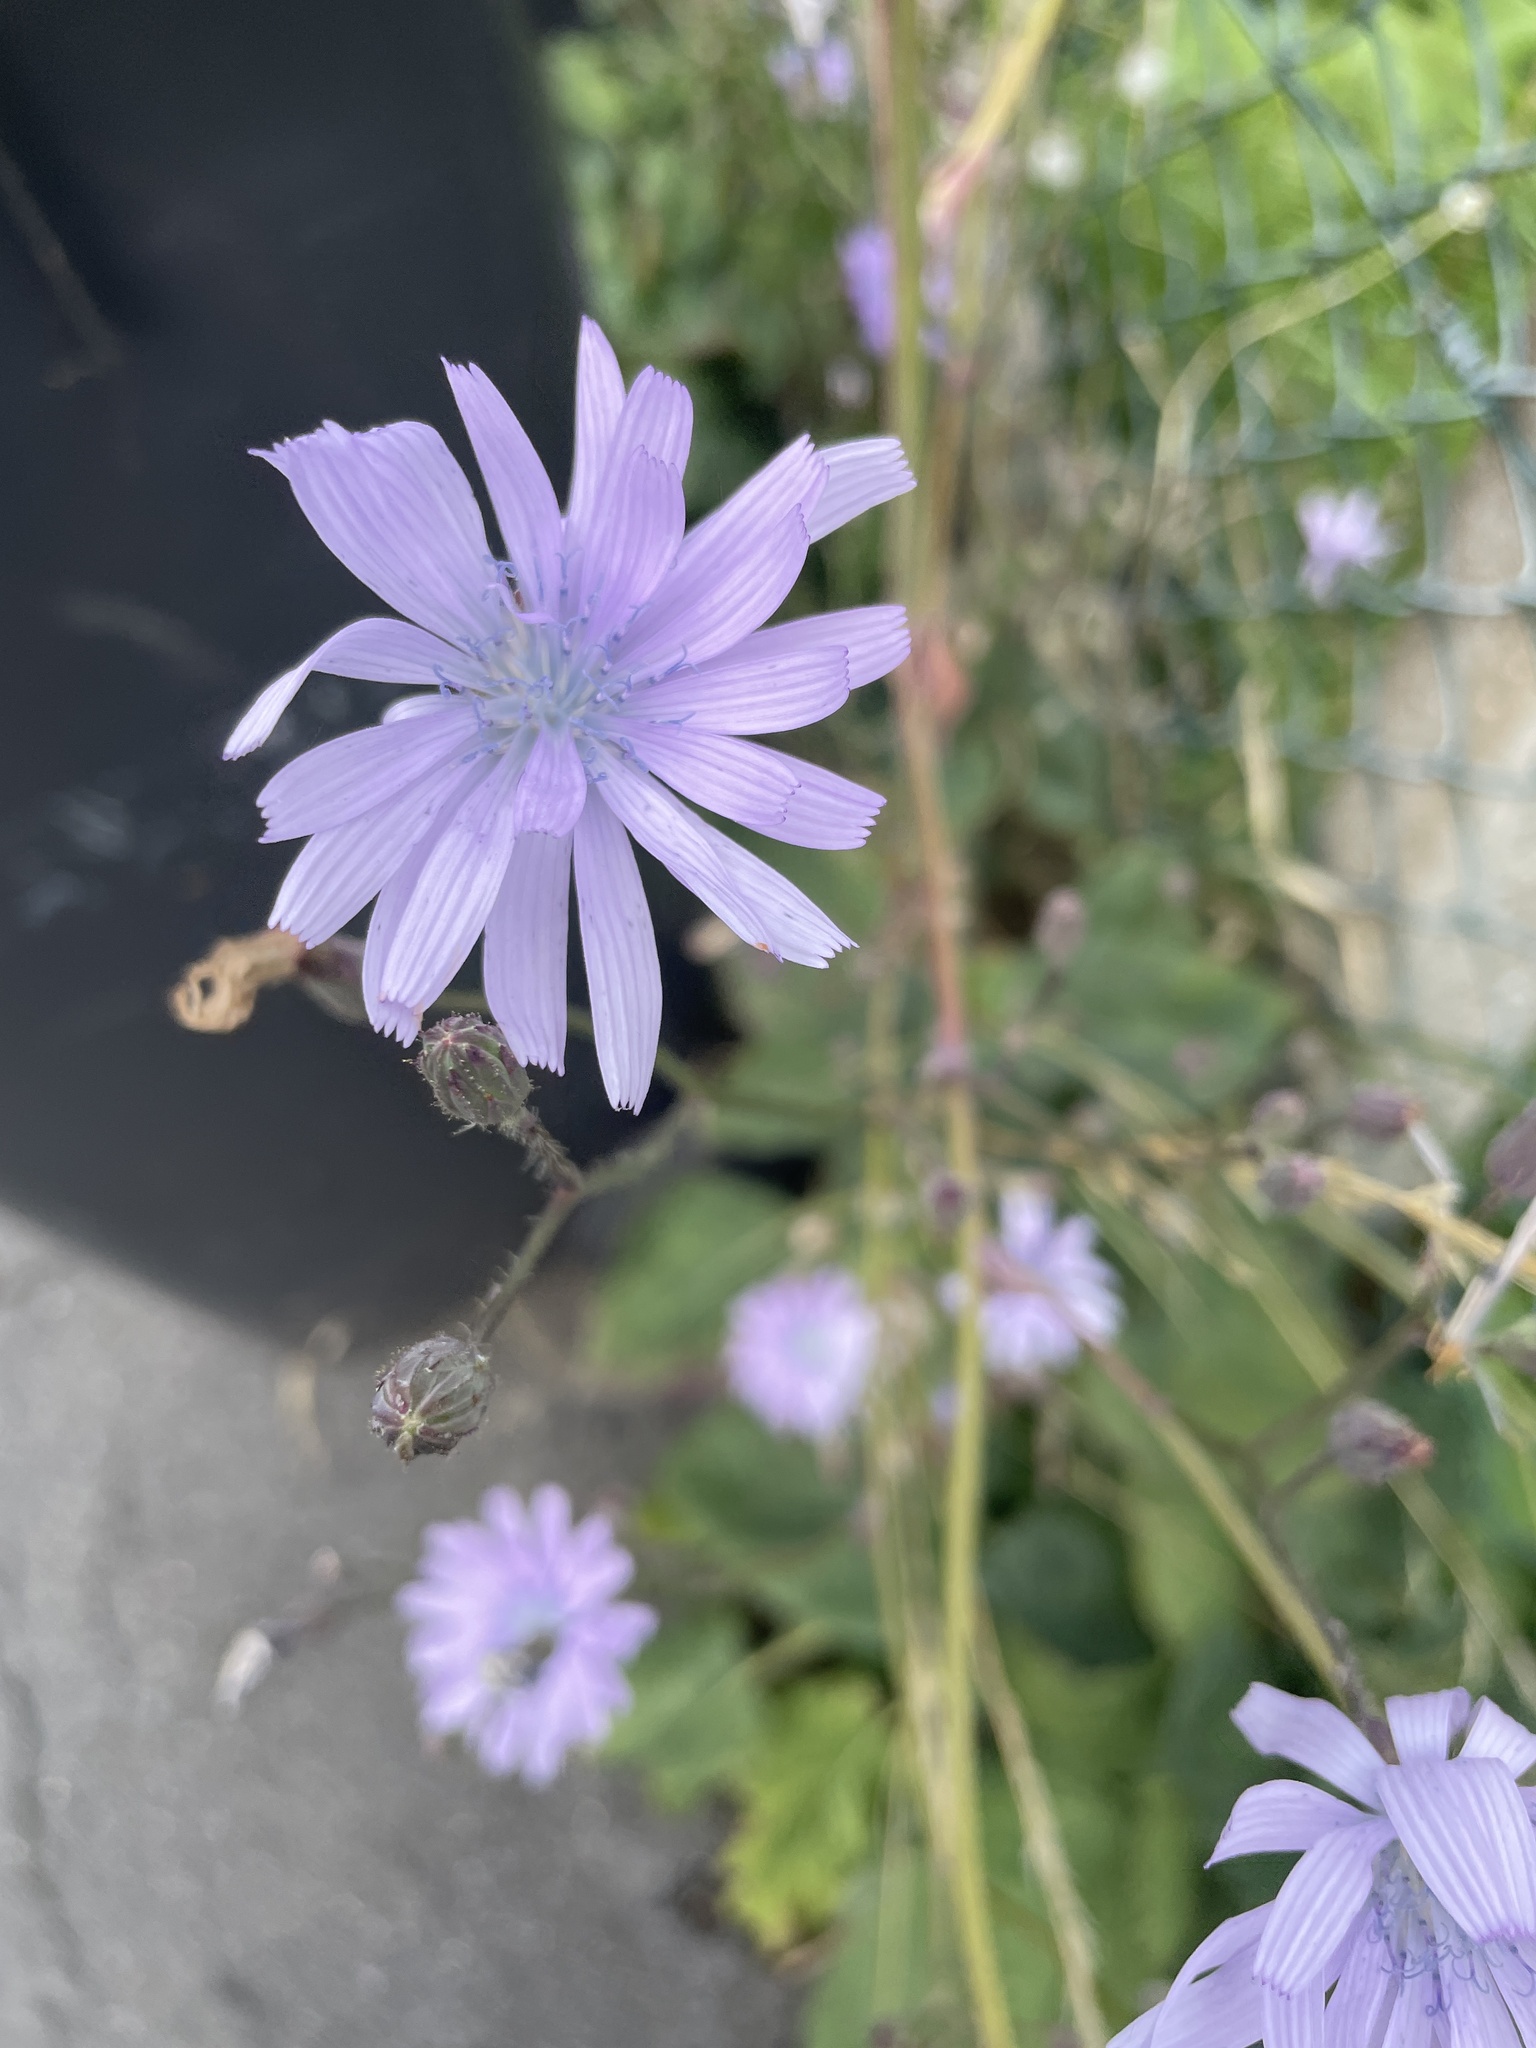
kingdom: Plantae
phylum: Tracheophyta
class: Magnoliopsida
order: Asterales
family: Asteraceae
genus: Lactuca
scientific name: Lactuca macrophylla
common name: Common blue-sow-thistle
